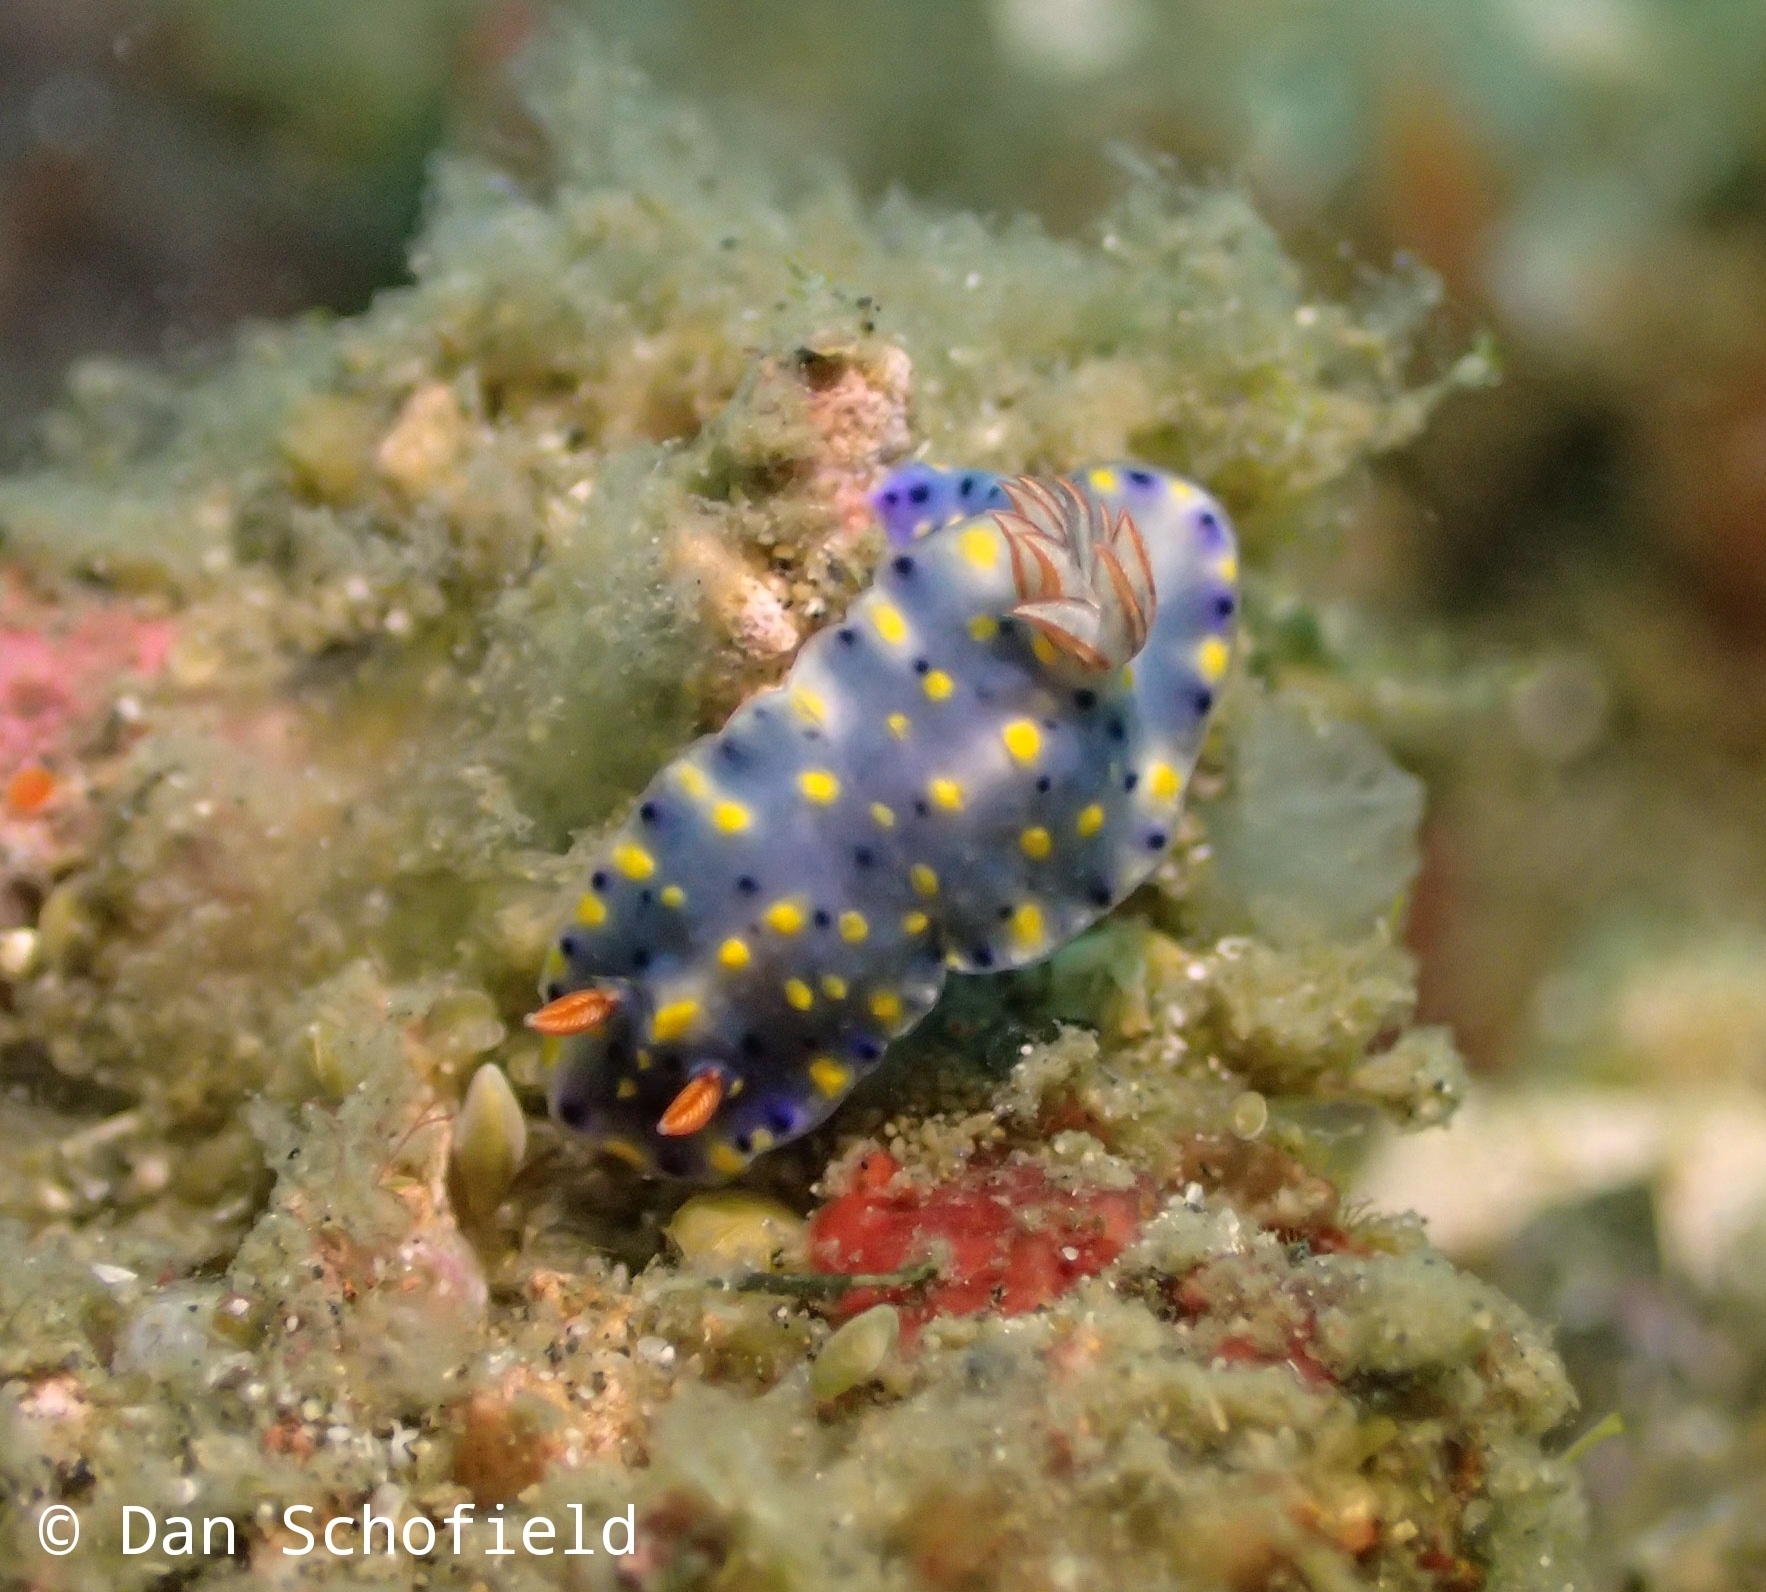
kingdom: Animalia
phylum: Mollusca
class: Gastropoda
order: Nudibranchia
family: Chromodorididae
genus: Hypselodoris
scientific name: Hypselodoris roo
